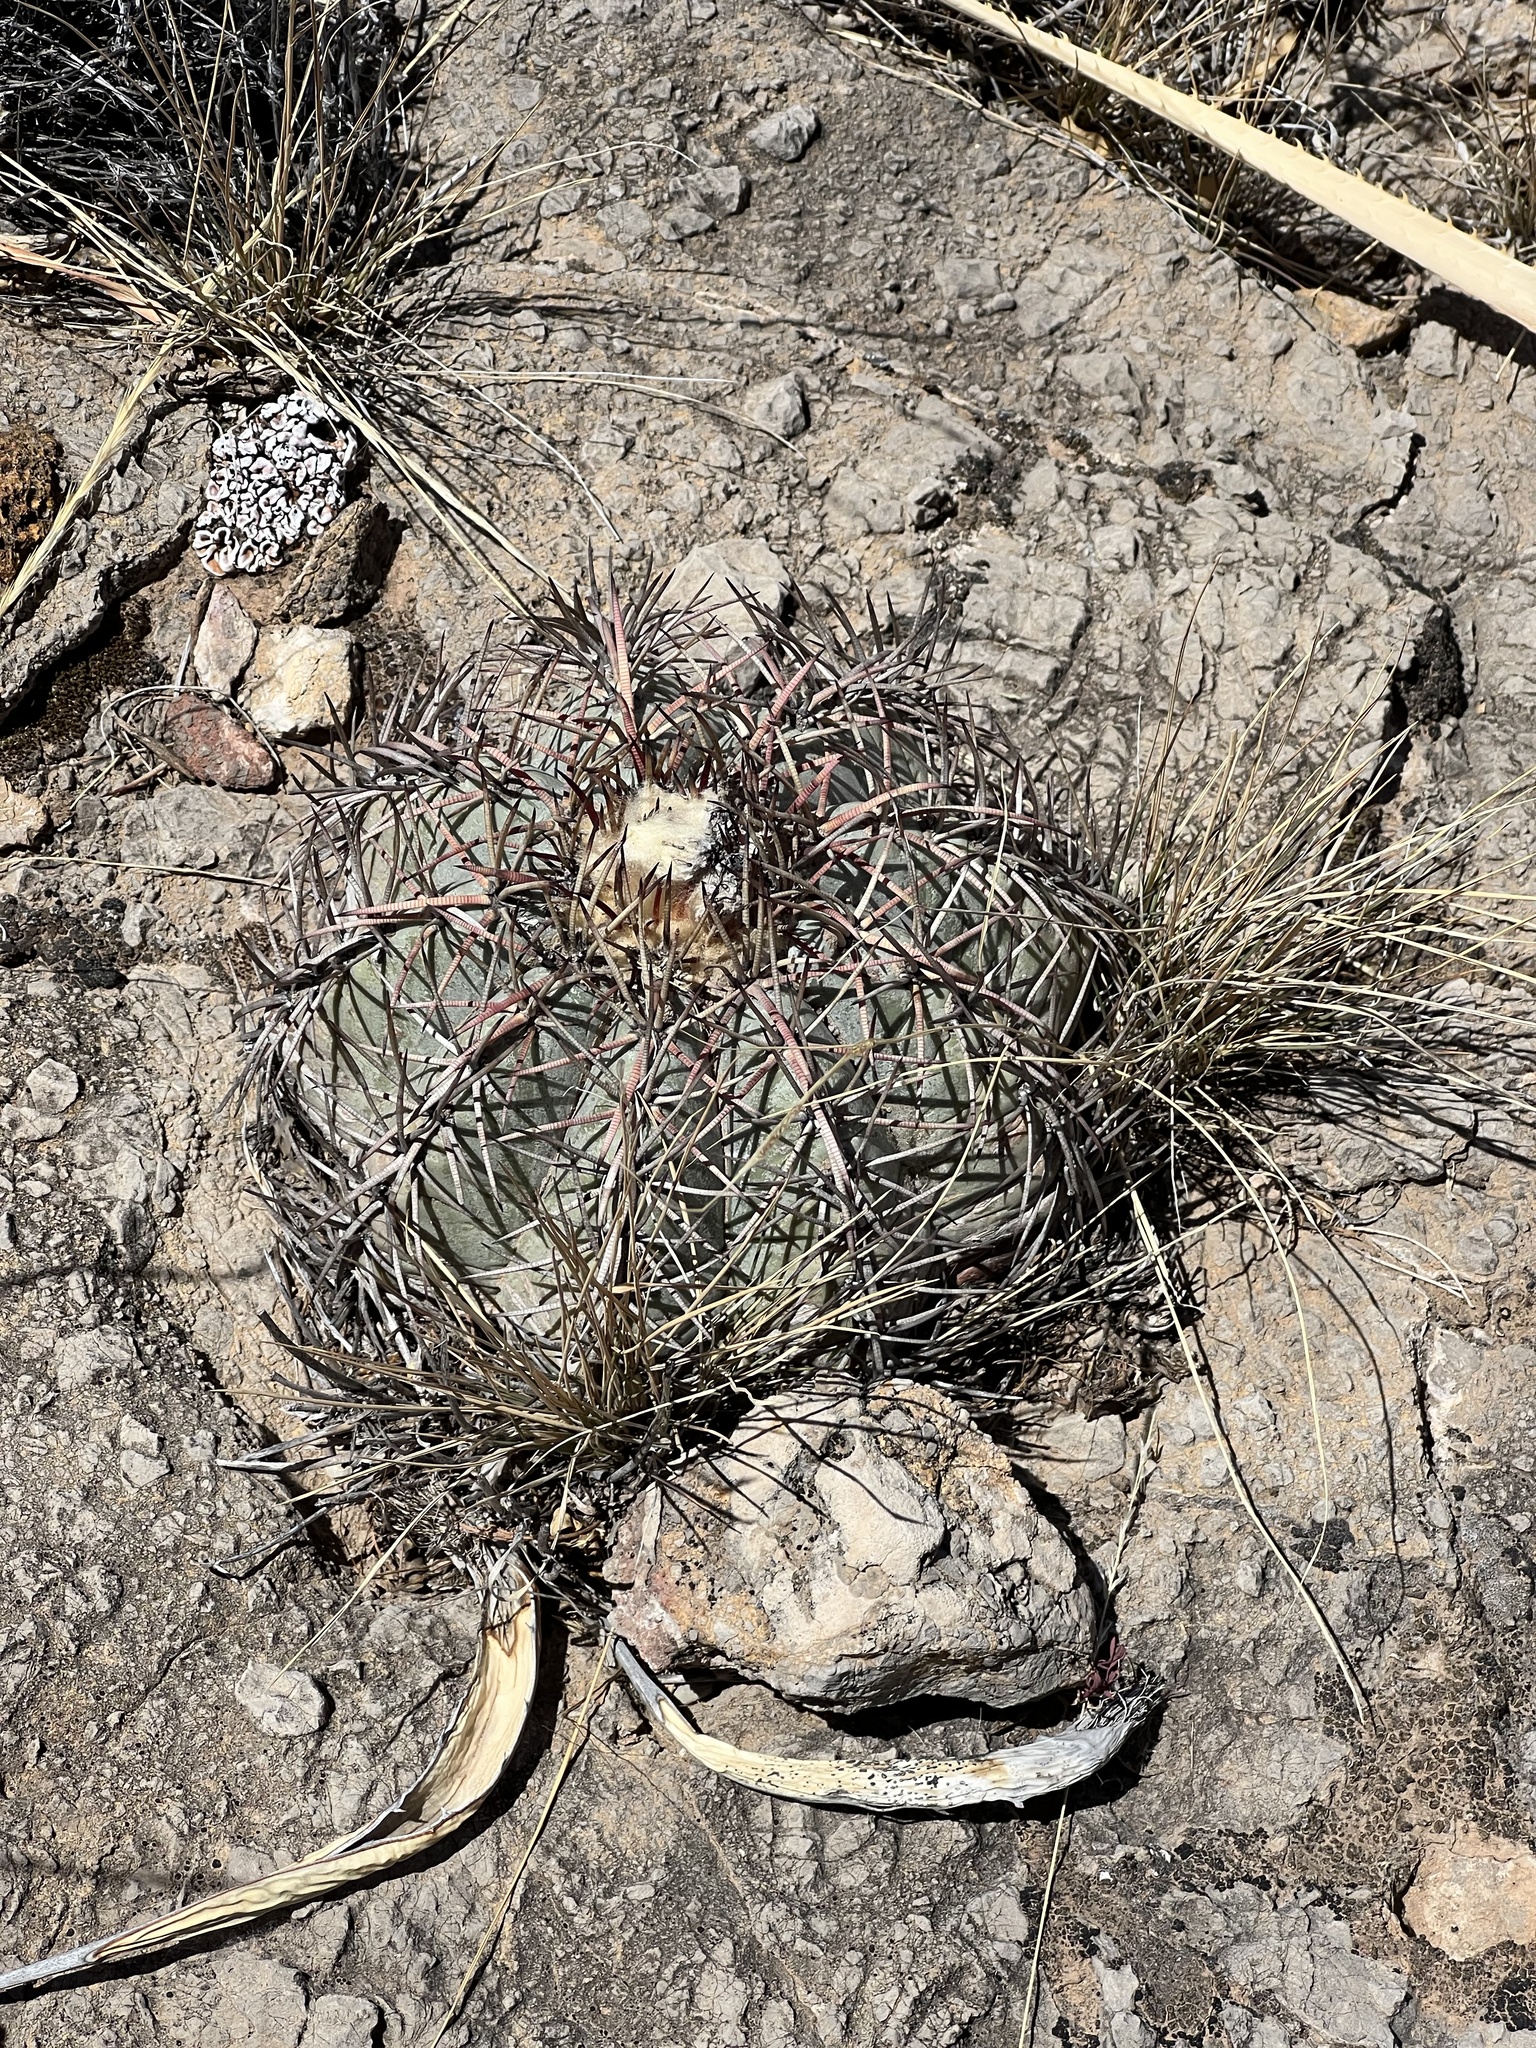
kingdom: Plantae
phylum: Tracheophyta
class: Magnoliopsida
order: Caryophyllales
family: Cactaceae
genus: Echinocactus
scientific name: Echinocactus horizonthalonius
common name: Devilshead
